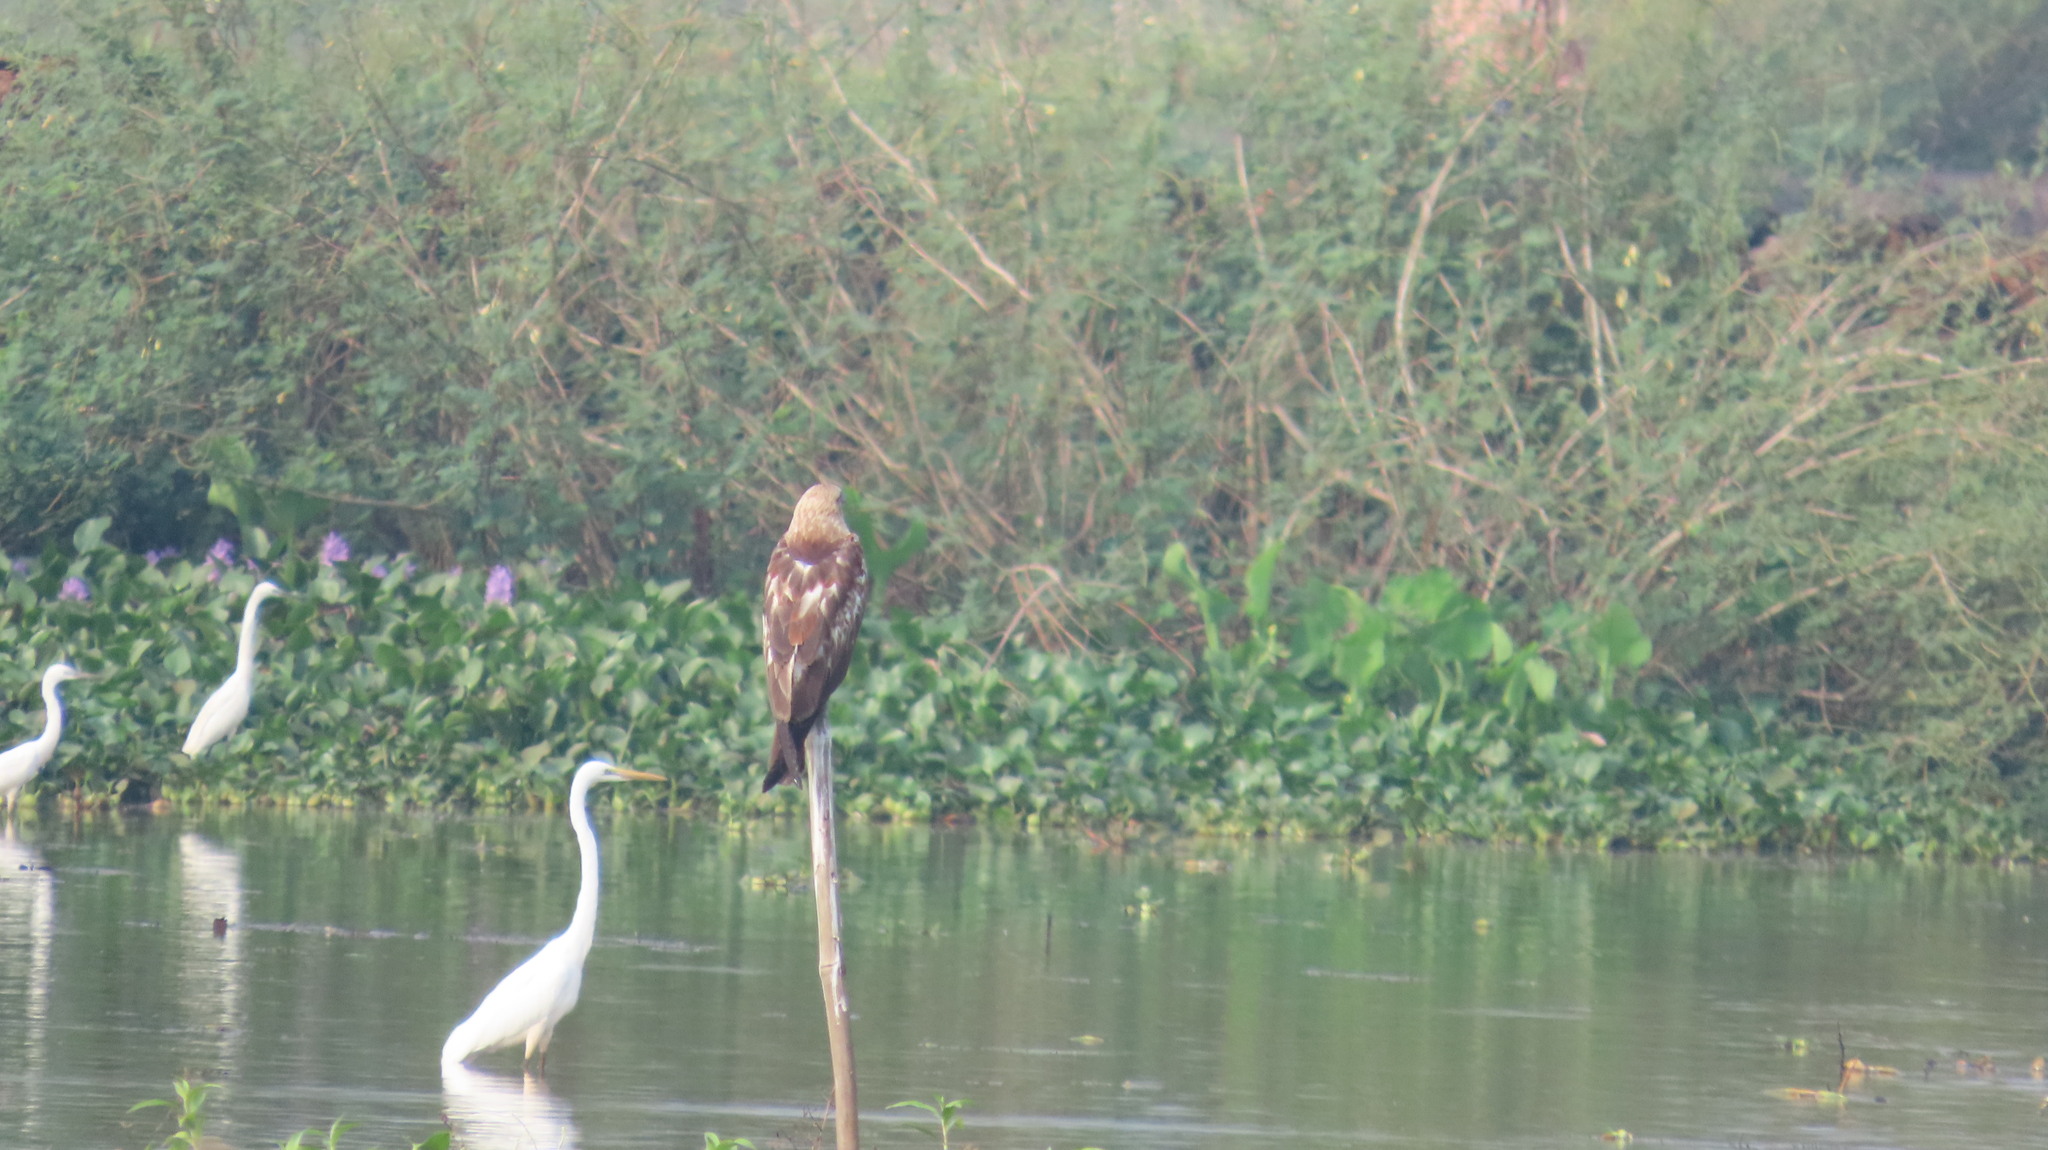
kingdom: Animalia
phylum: Chordata
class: Aves
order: Pelecaniformes
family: Ardeidae
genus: Ardea
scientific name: Ardea alba
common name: Great egret
